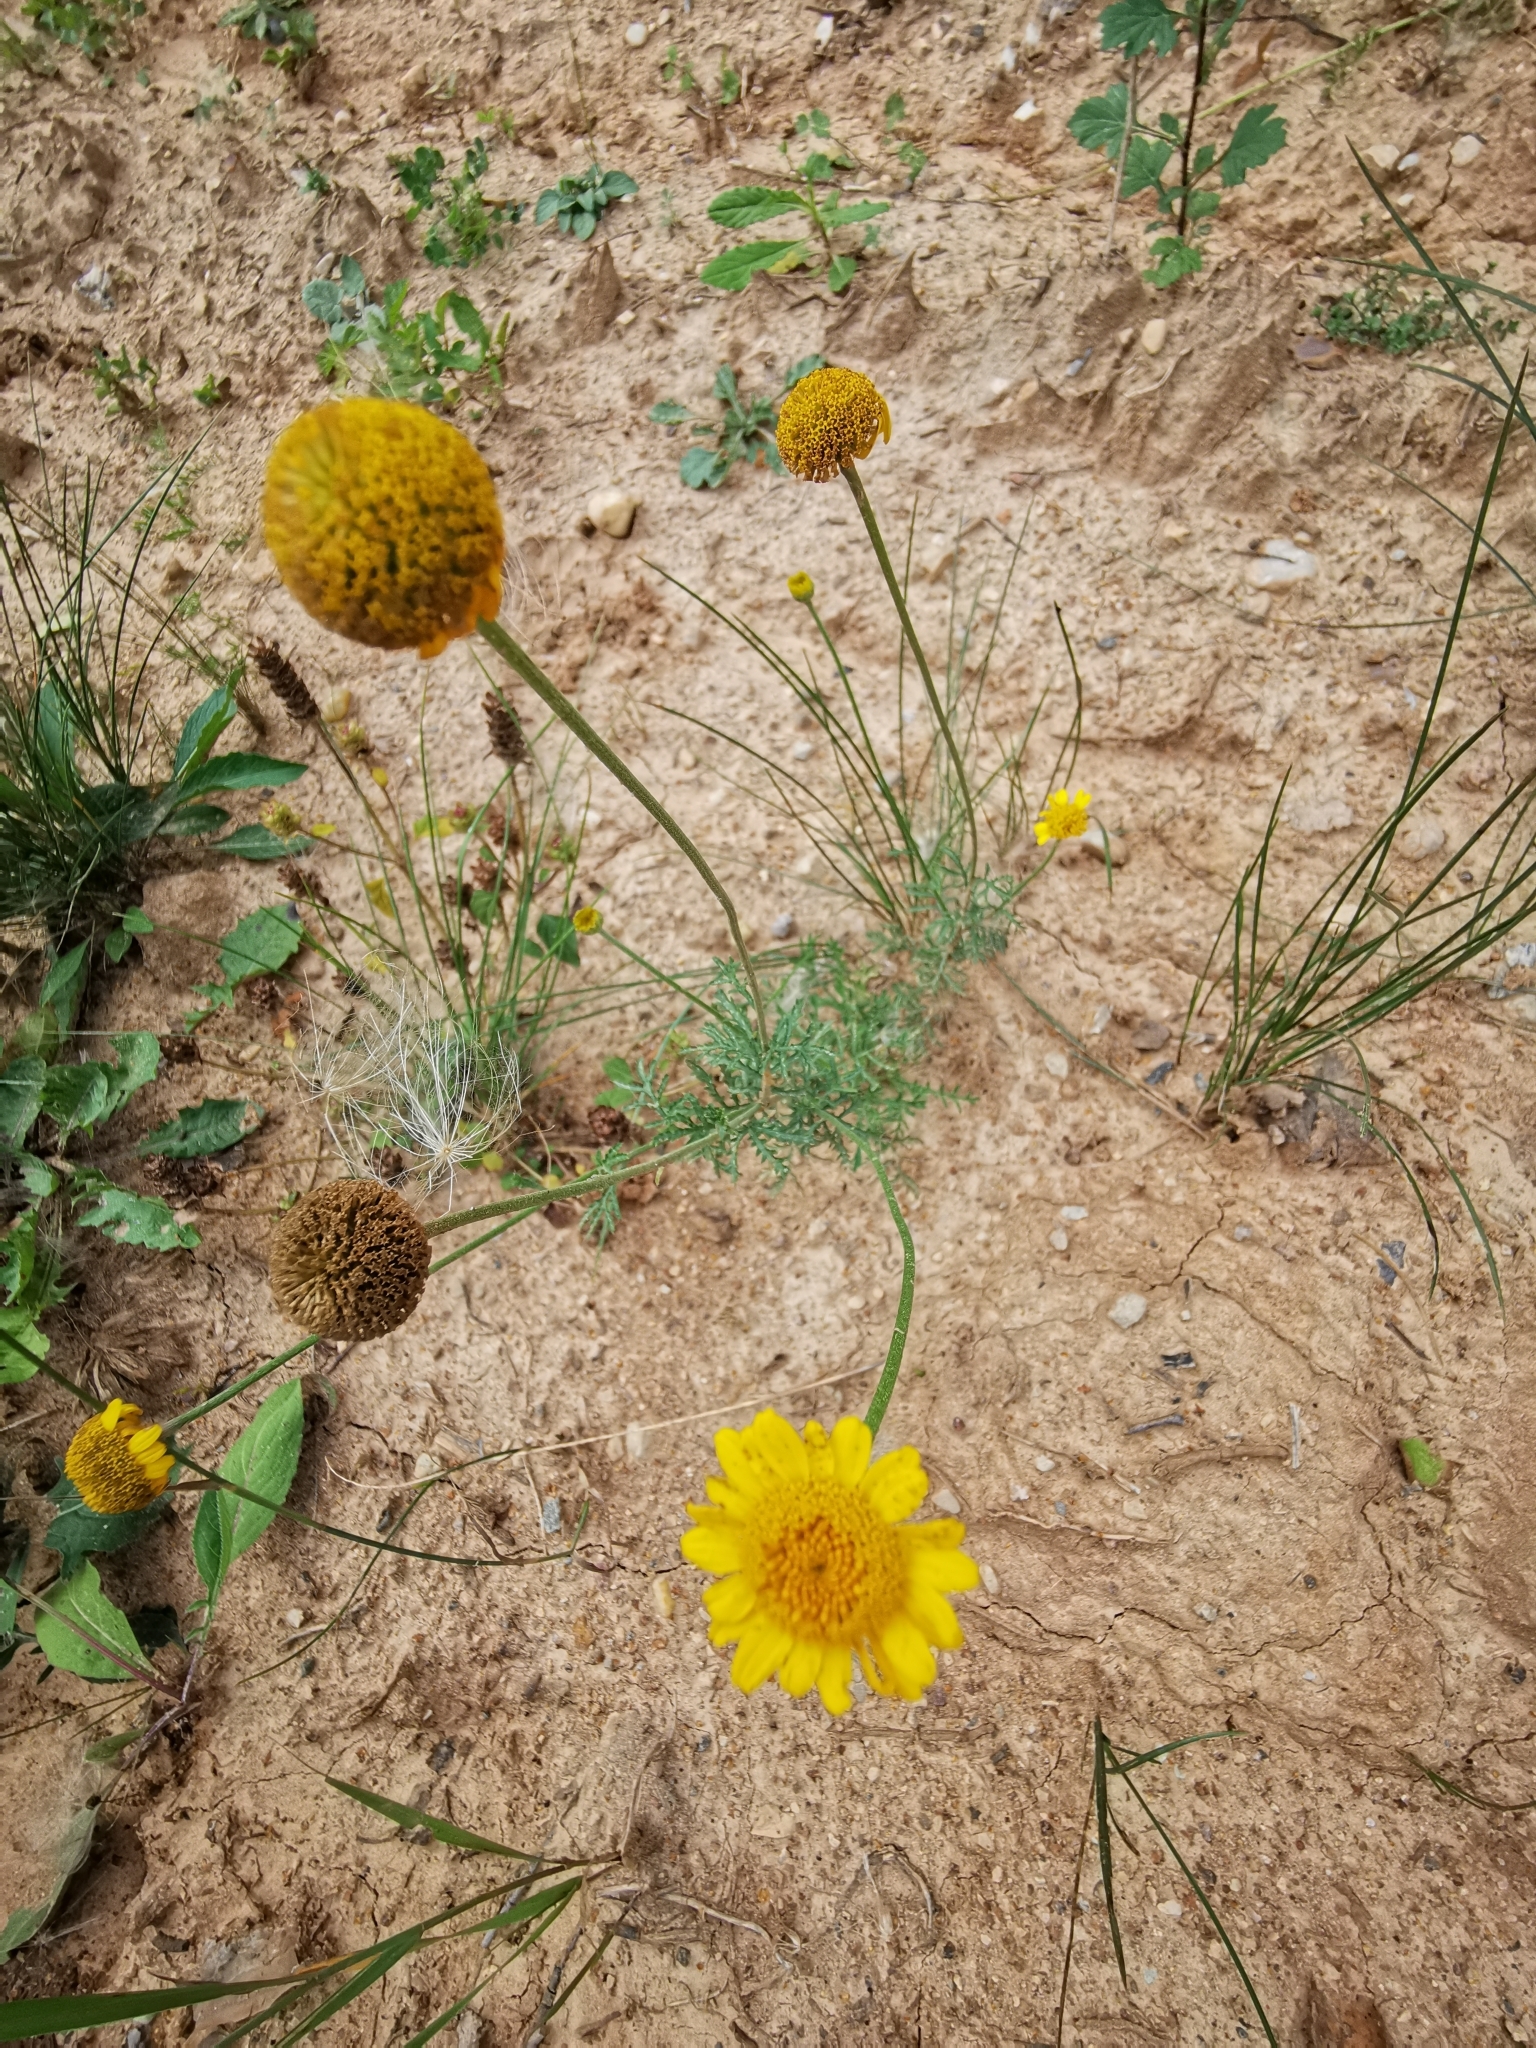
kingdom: Plantae
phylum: Tracheophyta
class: Magnoliopsida
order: Asterales
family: Asteraceae
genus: Cota
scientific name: Cota tinctoria
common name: Golden chamomile
